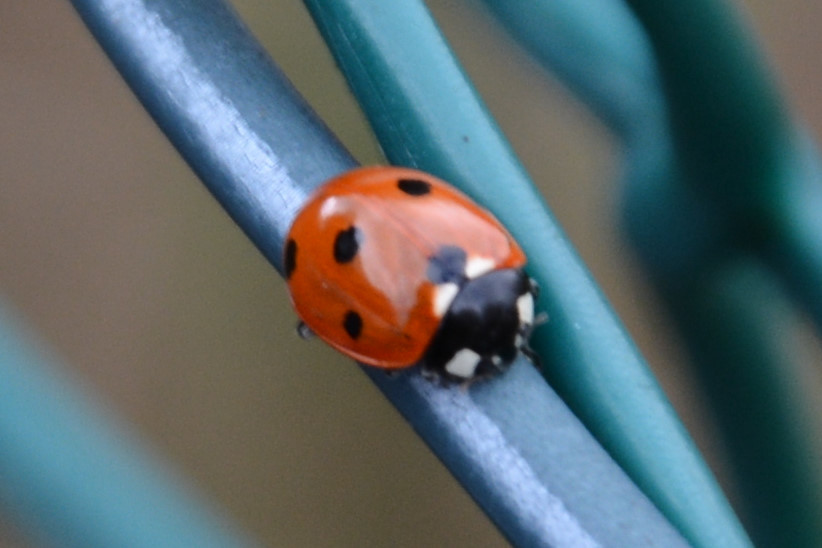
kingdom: Animalia
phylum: Arthropoda
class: Insecta
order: Coleoptera
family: Coccinellidae
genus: Coccinella
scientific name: Coccinella septempunctata
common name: Sevenspotted lady beetle
